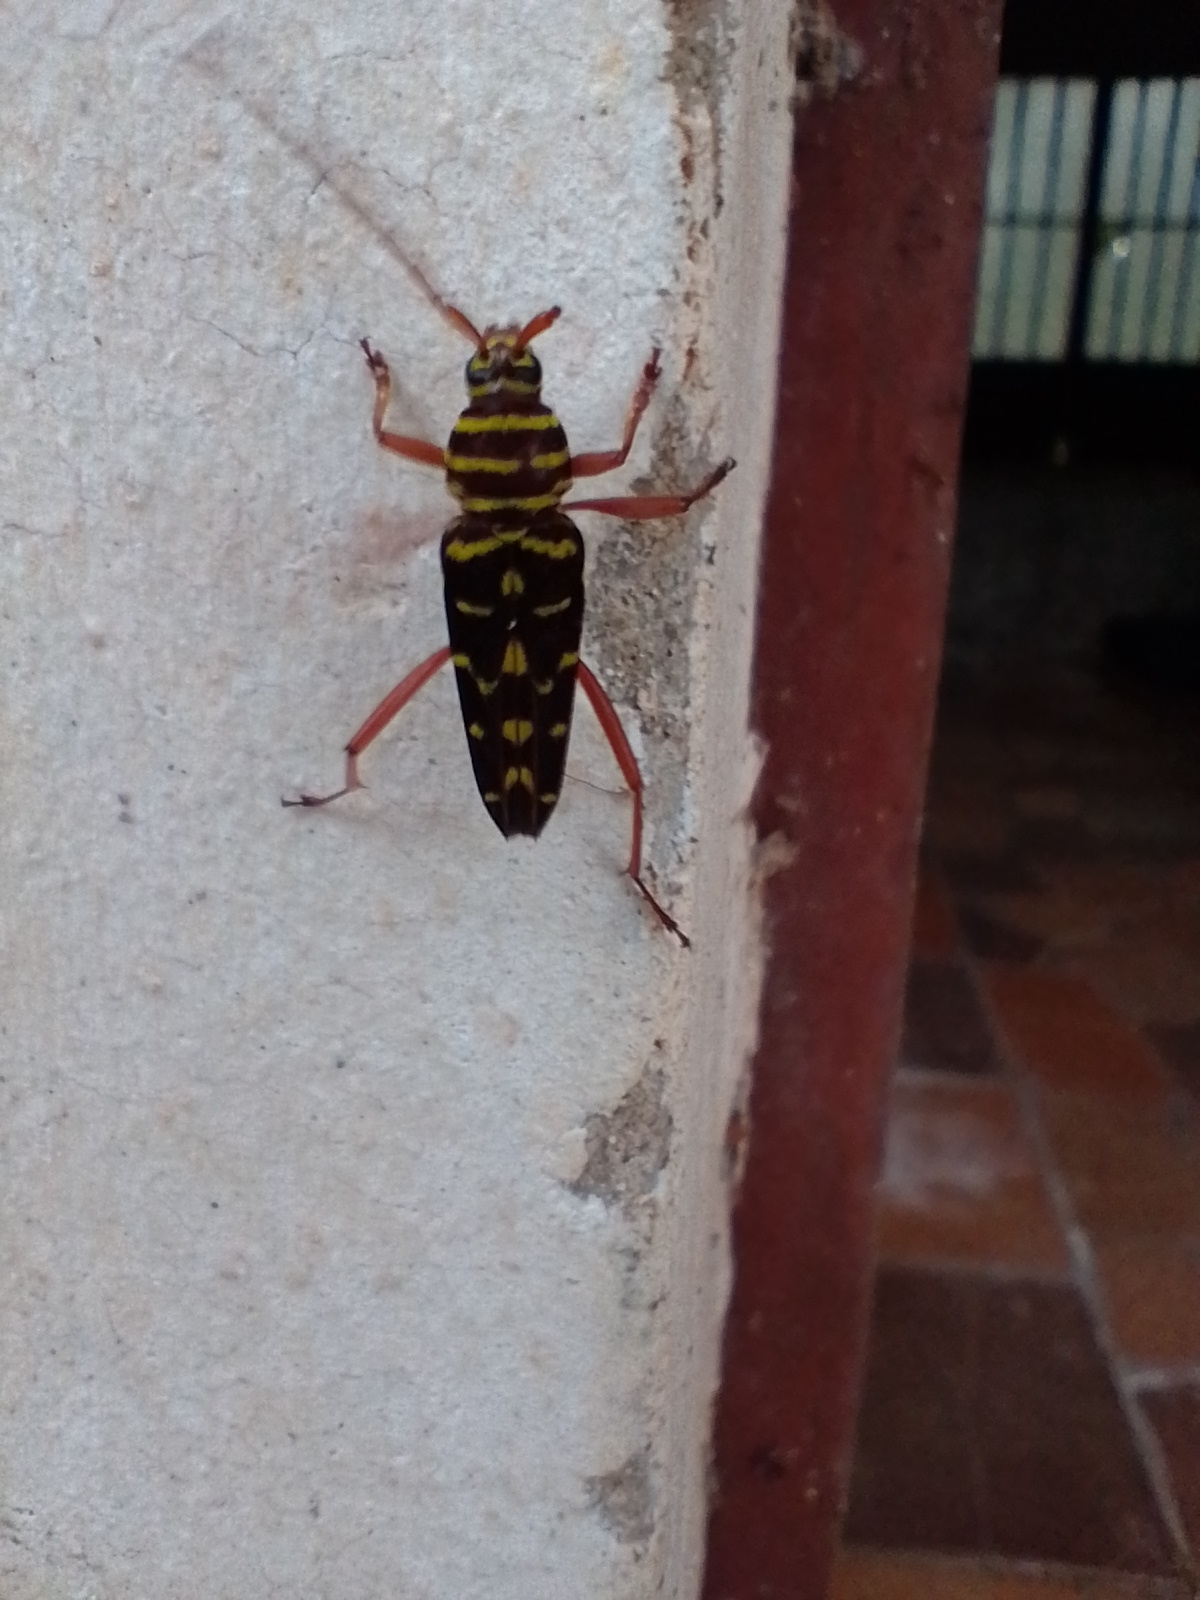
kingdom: Animalia
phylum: Arthropoda
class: Insecta
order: Coleoptera
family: Cerambycidae
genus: Megacyllene
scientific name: Megacyllene proxima
